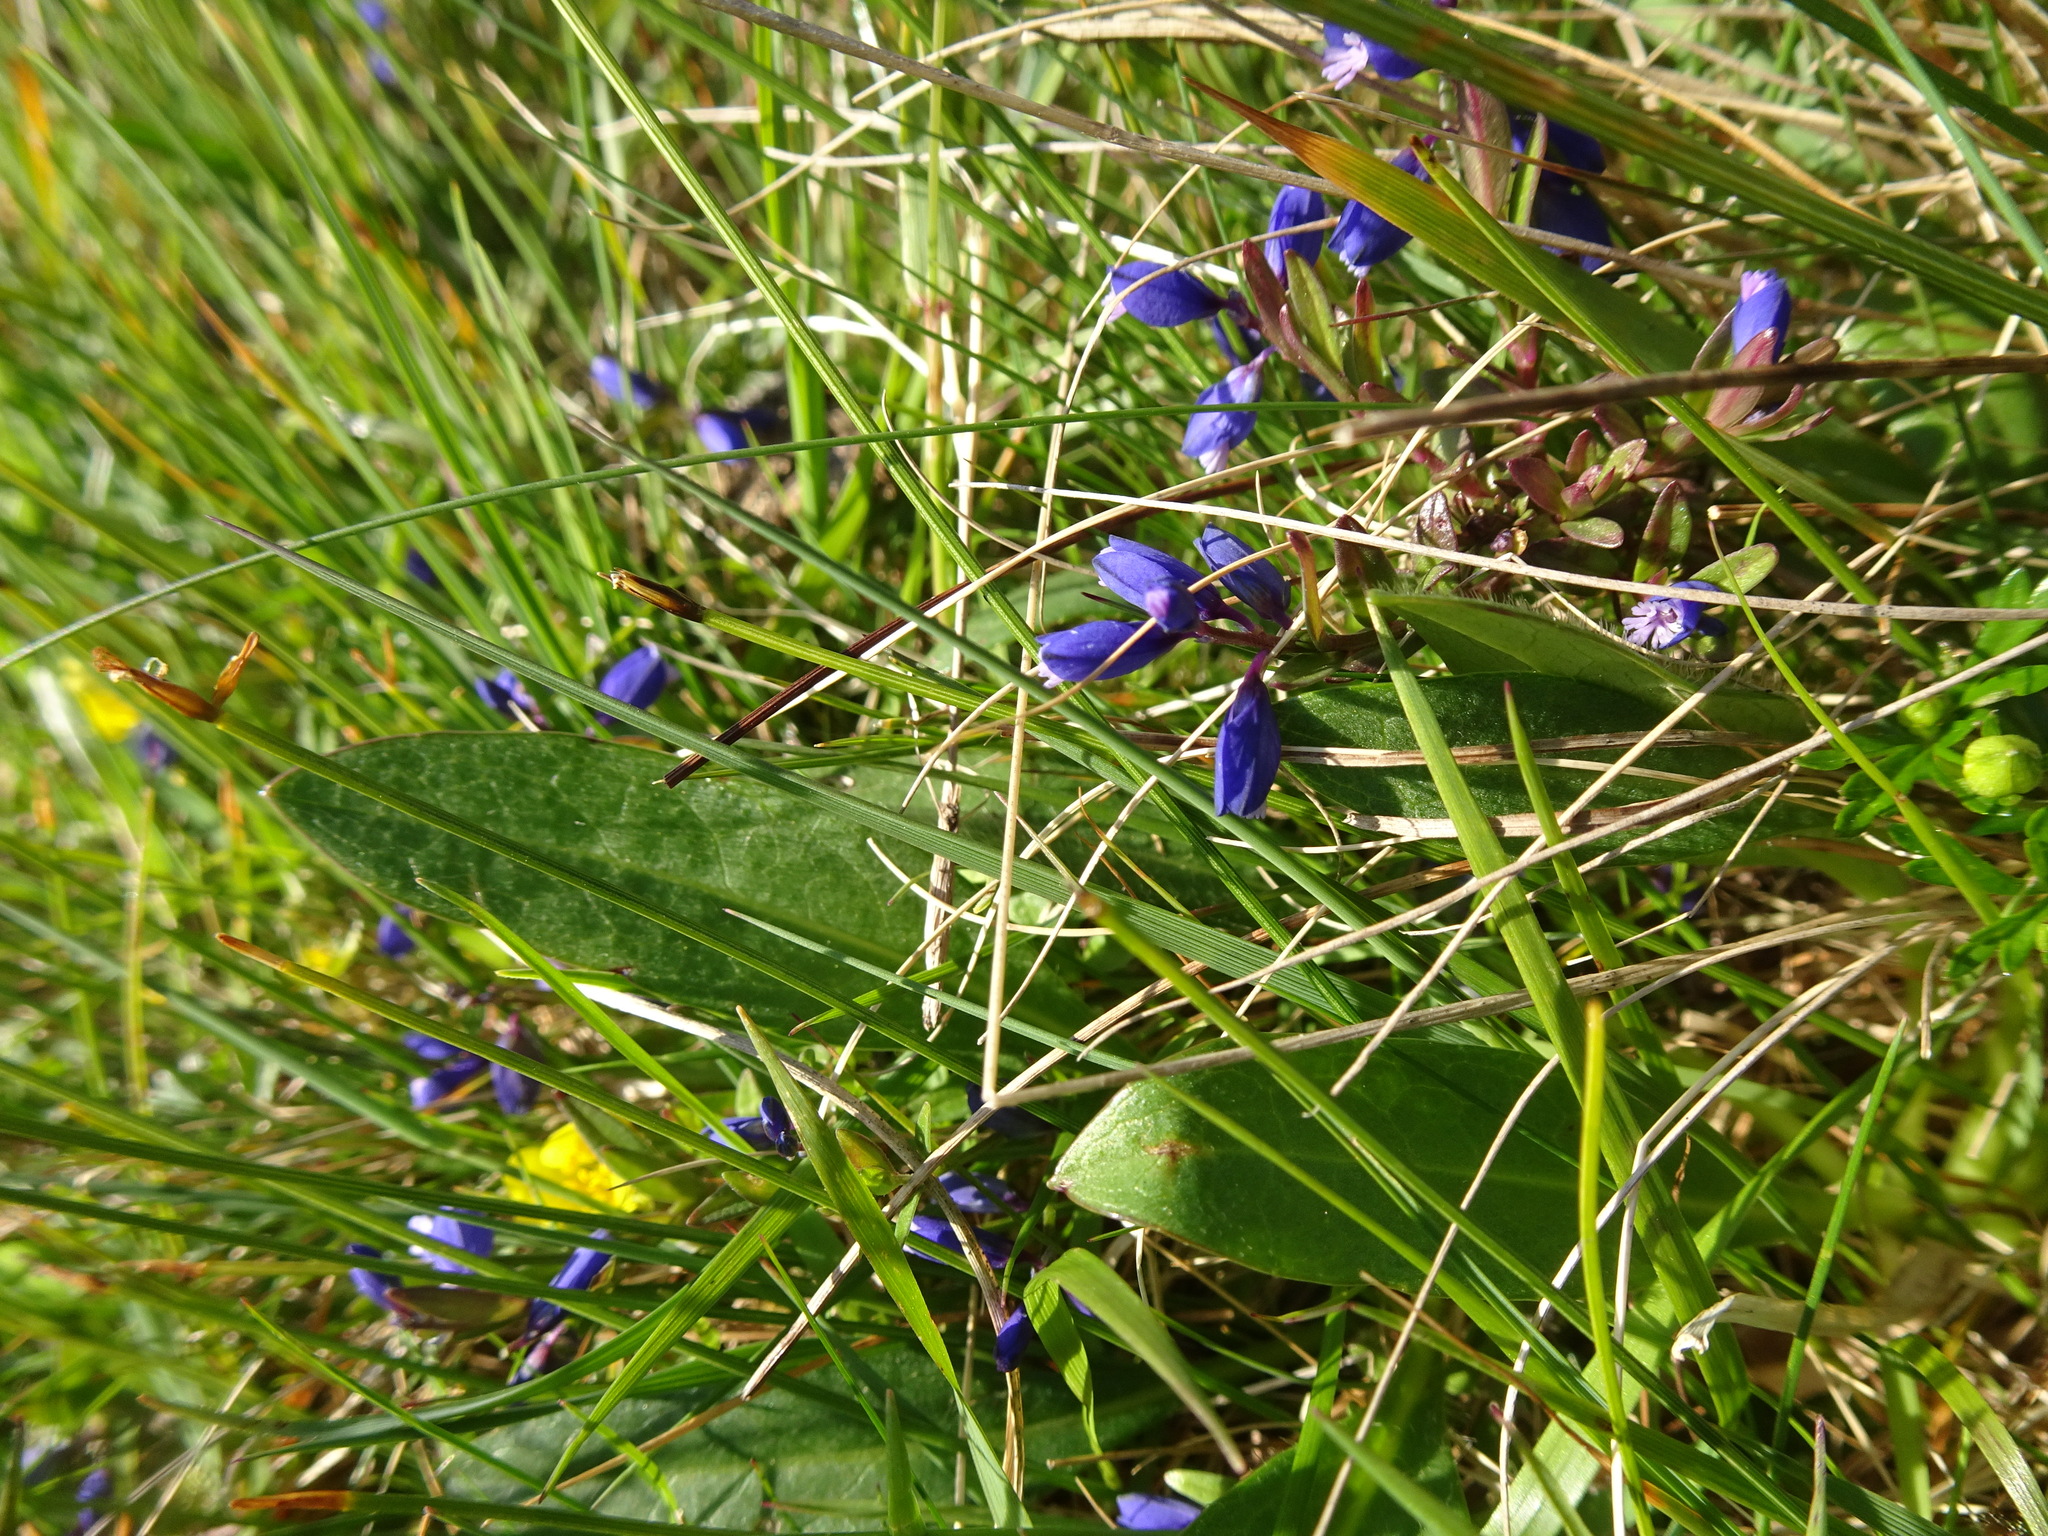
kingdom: Plantae
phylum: Tracheophyta
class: Magnoliopsida
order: Fabales
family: Polygalaceae
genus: Polygala
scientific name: Polygala vulgaris
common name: Common milkwort
